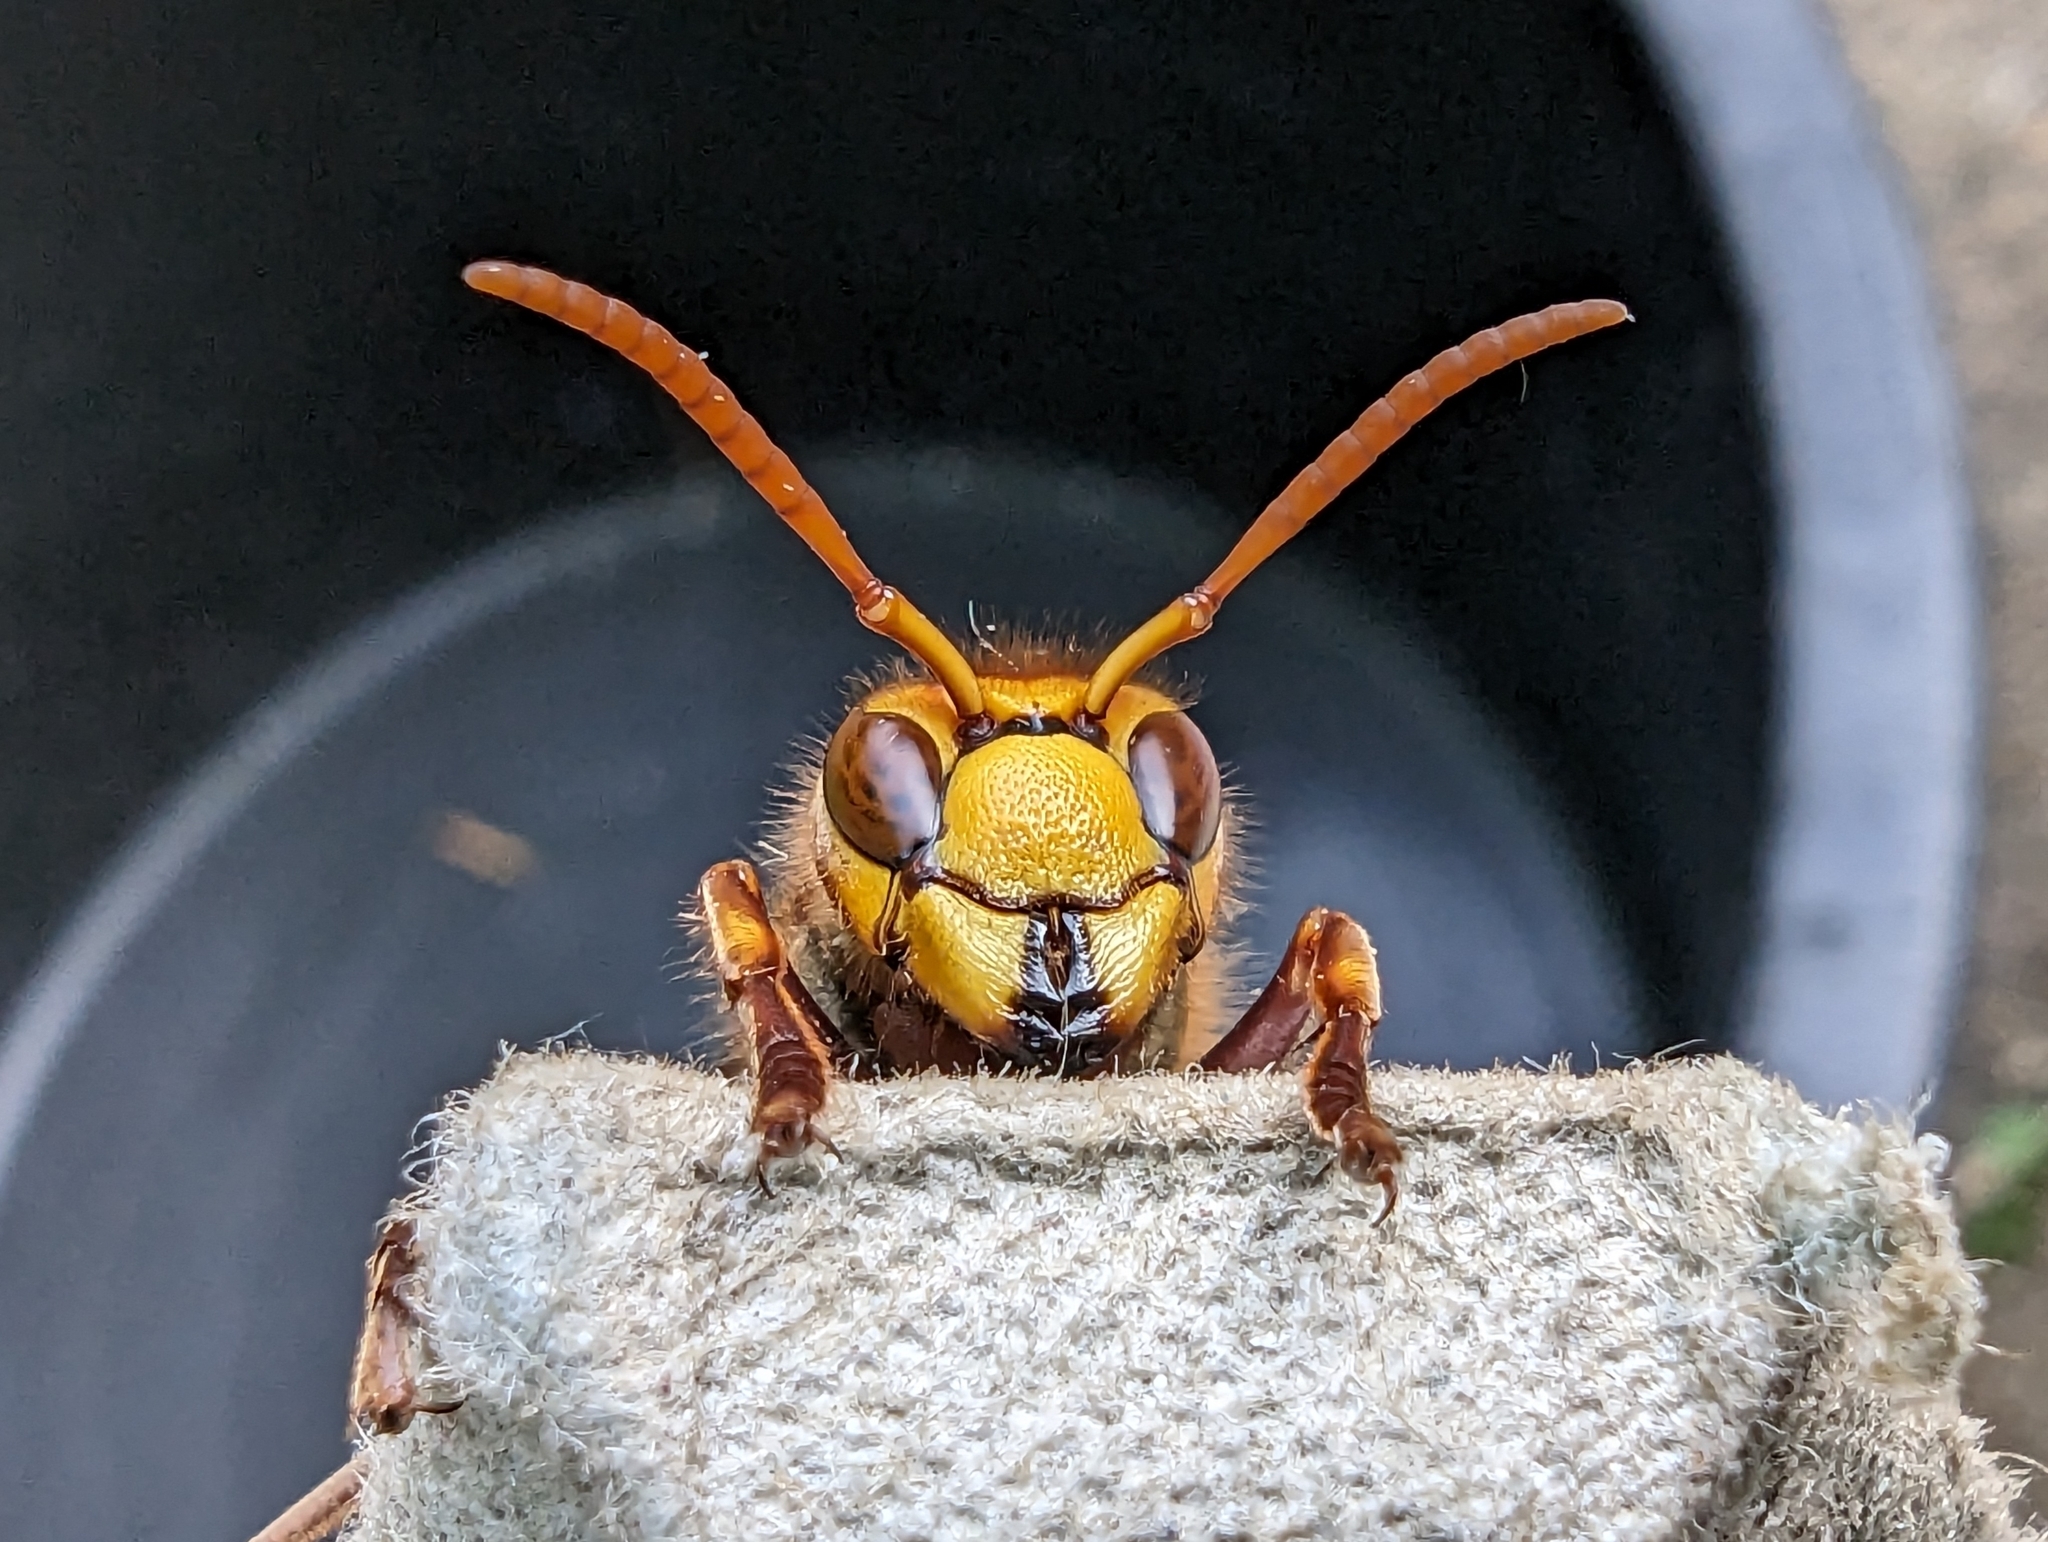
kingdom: Animalia
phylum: Arthropoda
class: Insecta
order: Hymenoptera
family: Vespidae
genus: Vespa
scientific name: Vespa crabro
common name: Hornet
